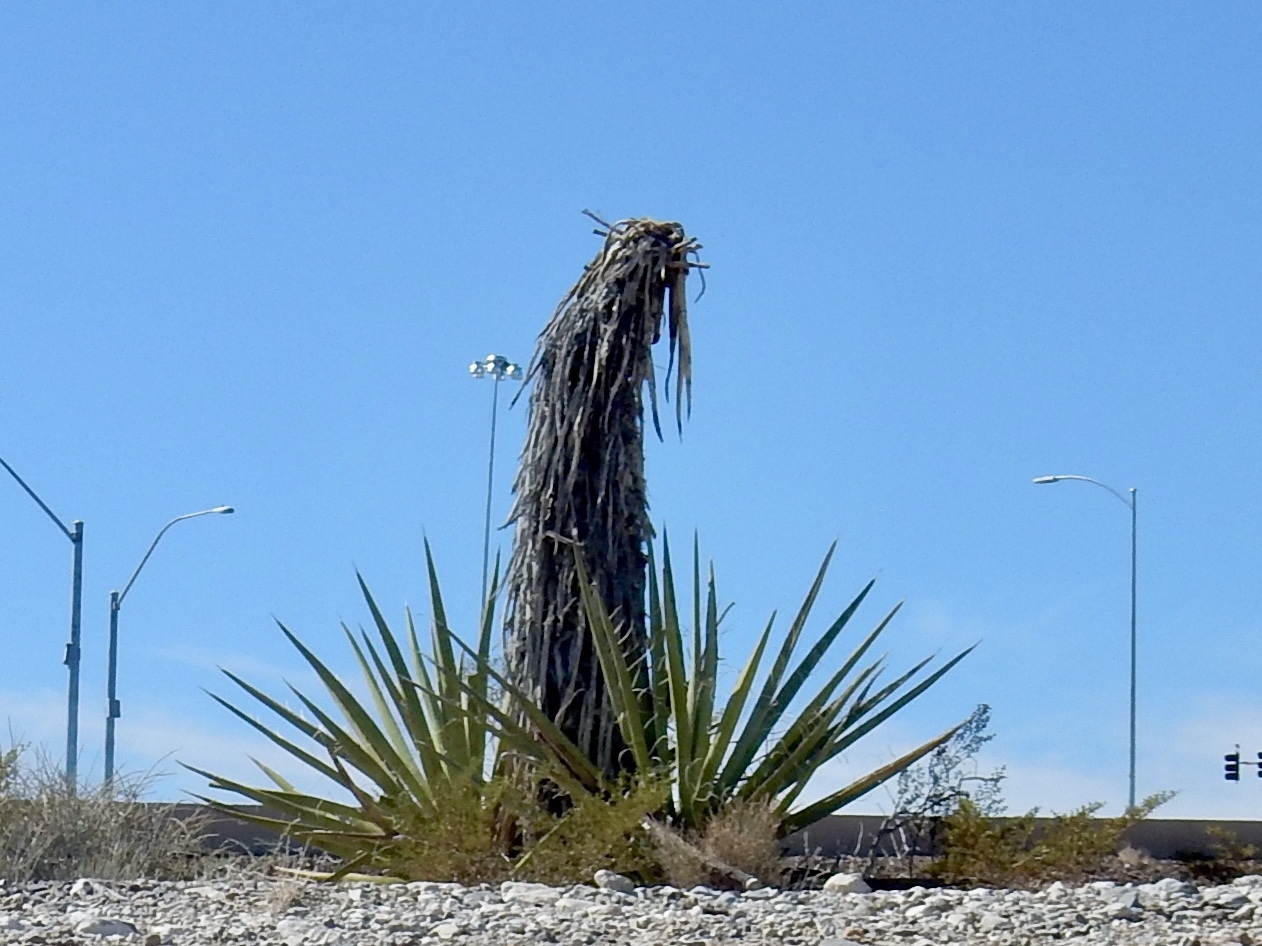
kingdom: Plantae
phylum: Tracheophyta
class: Liliopsida
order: Asparagales
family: Asparagaceae
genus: Yucca
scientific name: Yucca schidigera
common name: Mojave yucca
